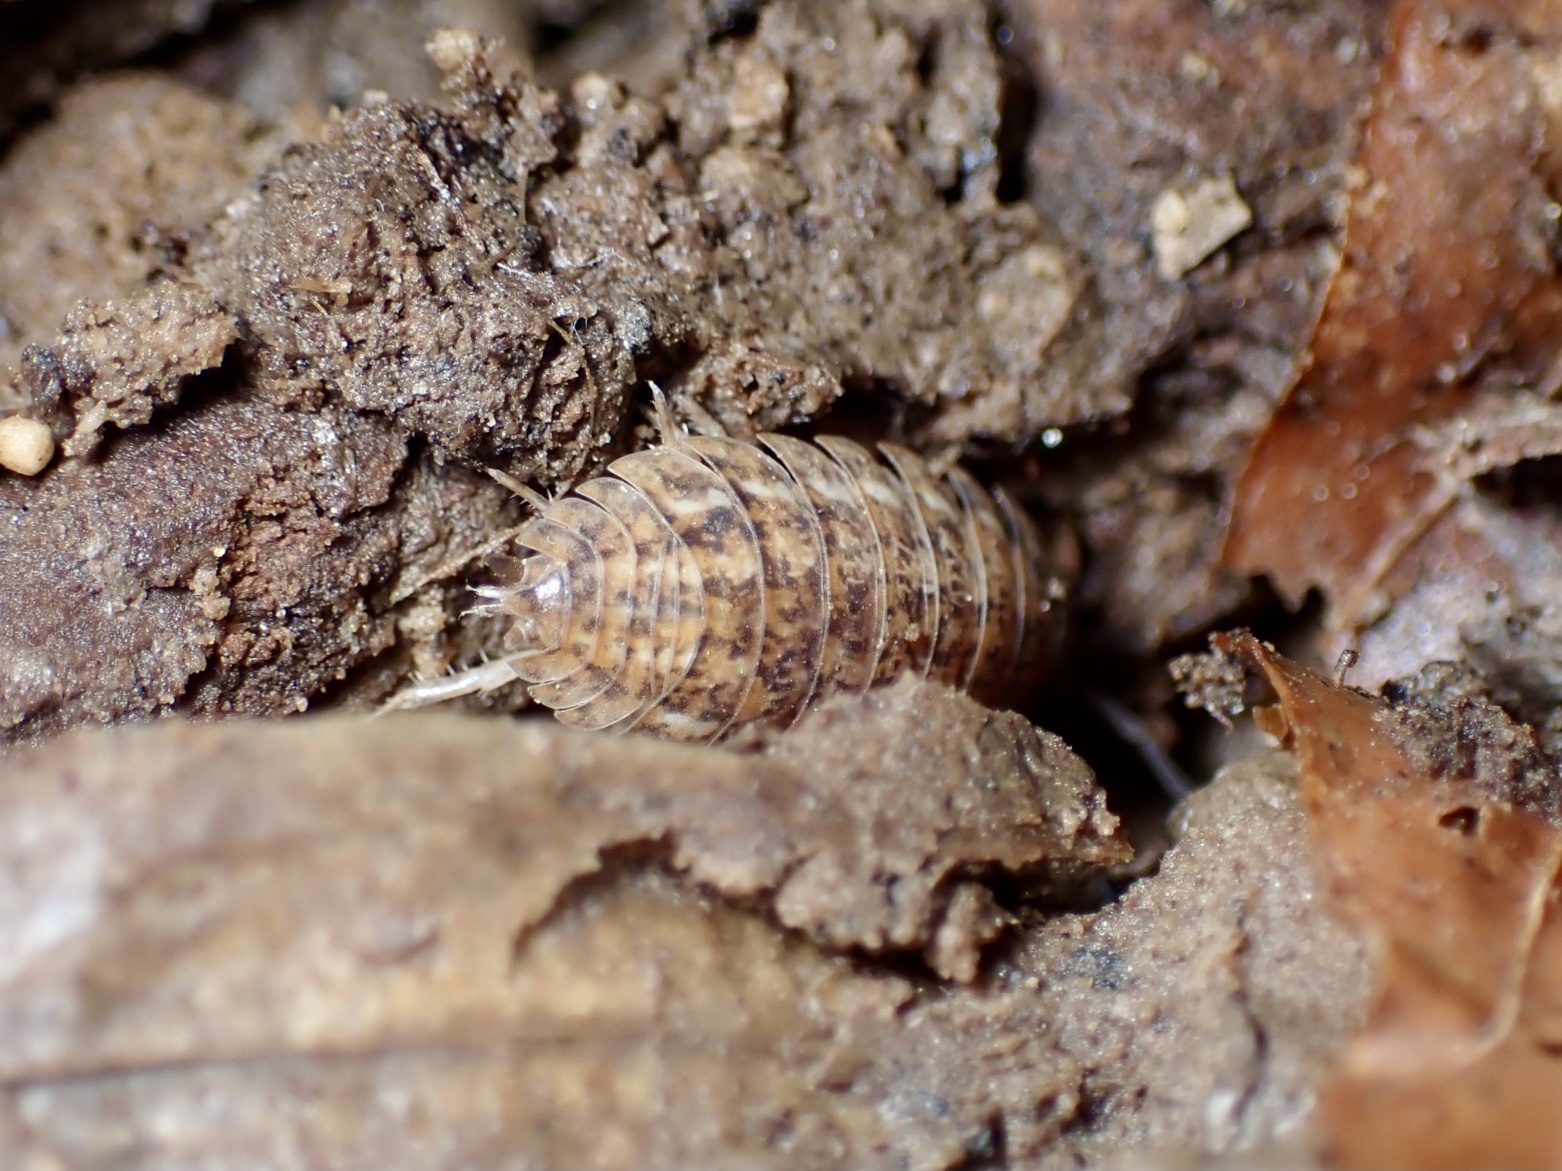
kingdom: Animalia
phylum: Arthropoda
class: Malacostraca
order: Isopoda
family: Trachelipodidae
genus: Trachelipus
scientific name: Trachelipus rathkii
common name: Isopod
